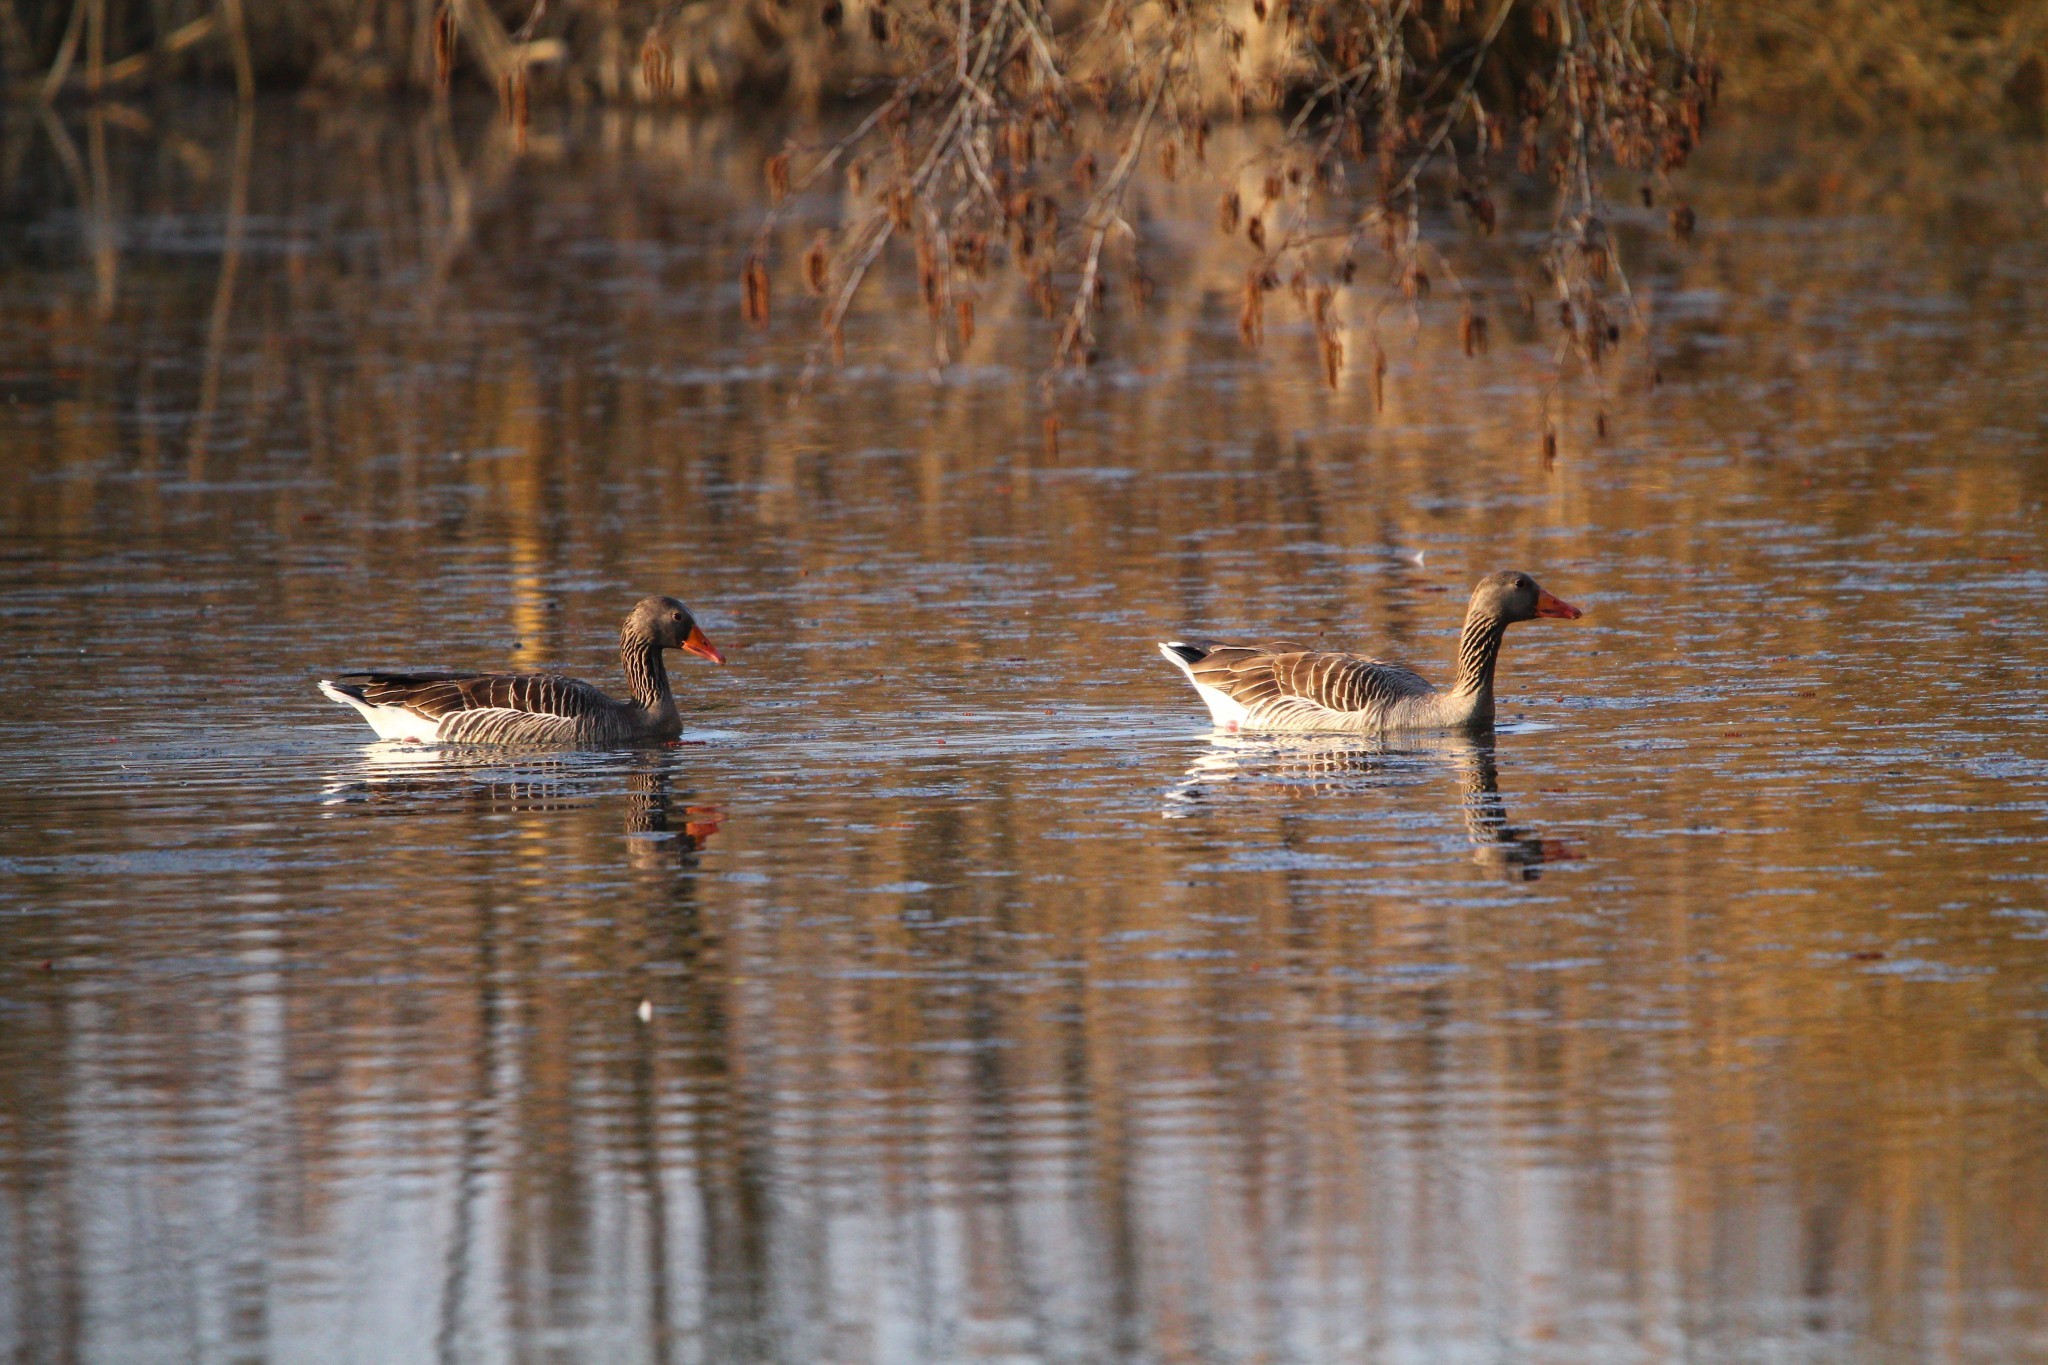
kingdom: Animalia
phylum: Chordata
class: Aves
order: Anseriformes
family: Anatidae
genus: Anser
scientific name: Anser anser
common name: Greylag goose
